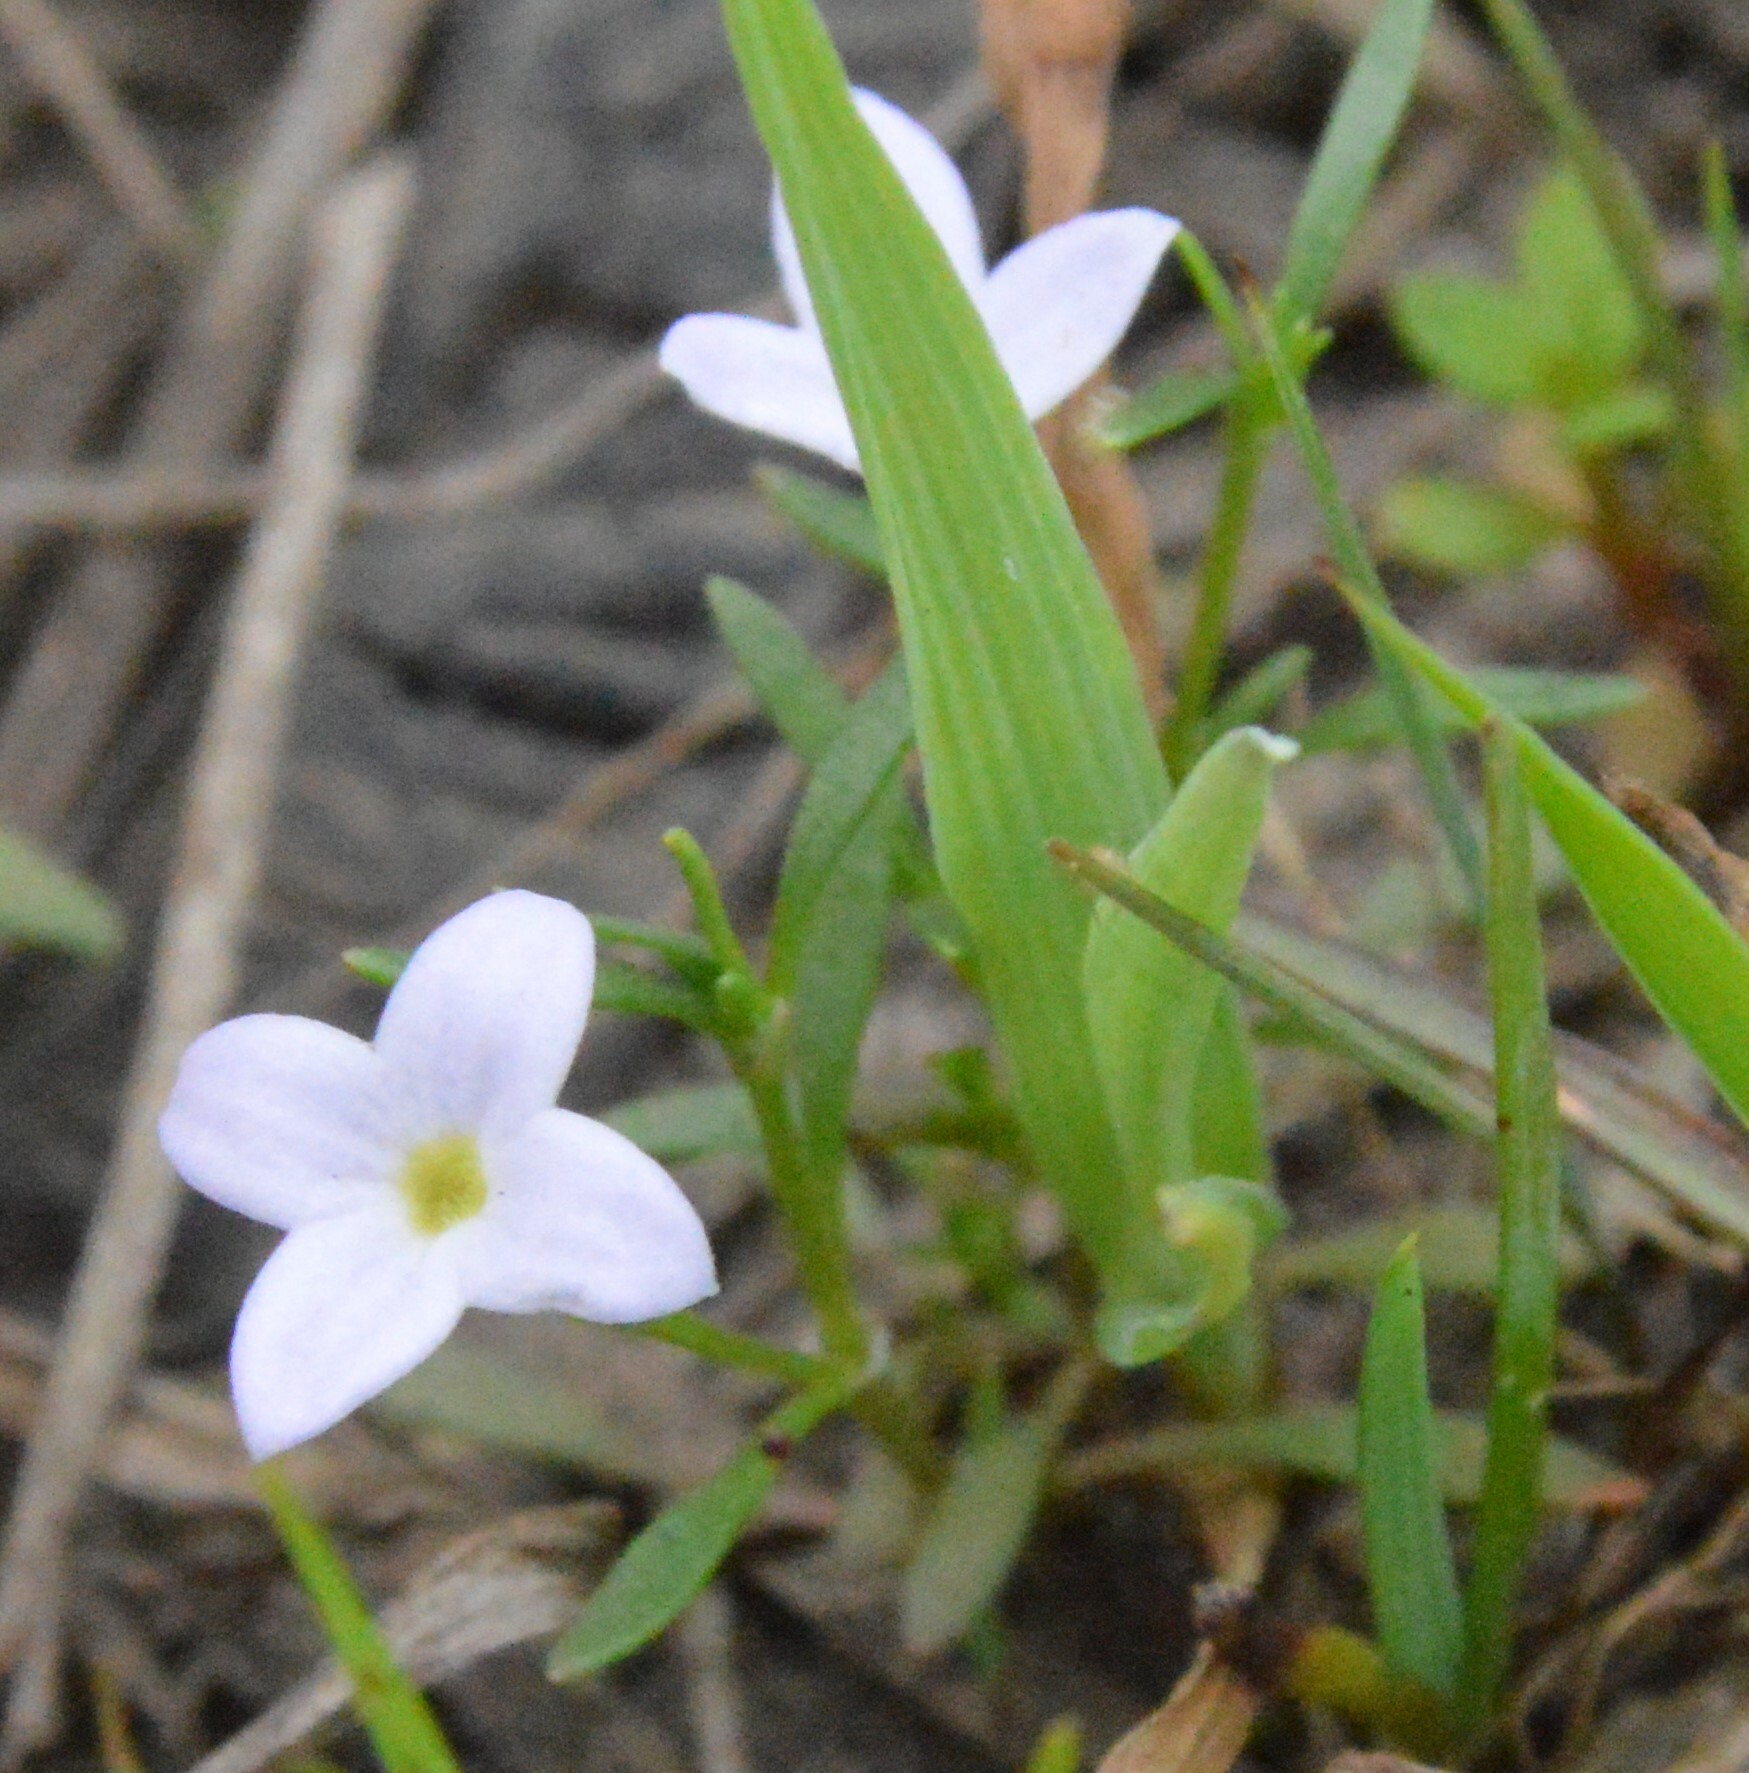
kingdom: Plantae
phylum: Tracheophyta
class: Magnoliopsida
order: Gentianales
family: Rubiaceae
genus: Houstonia
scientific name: Houstonia rosea
